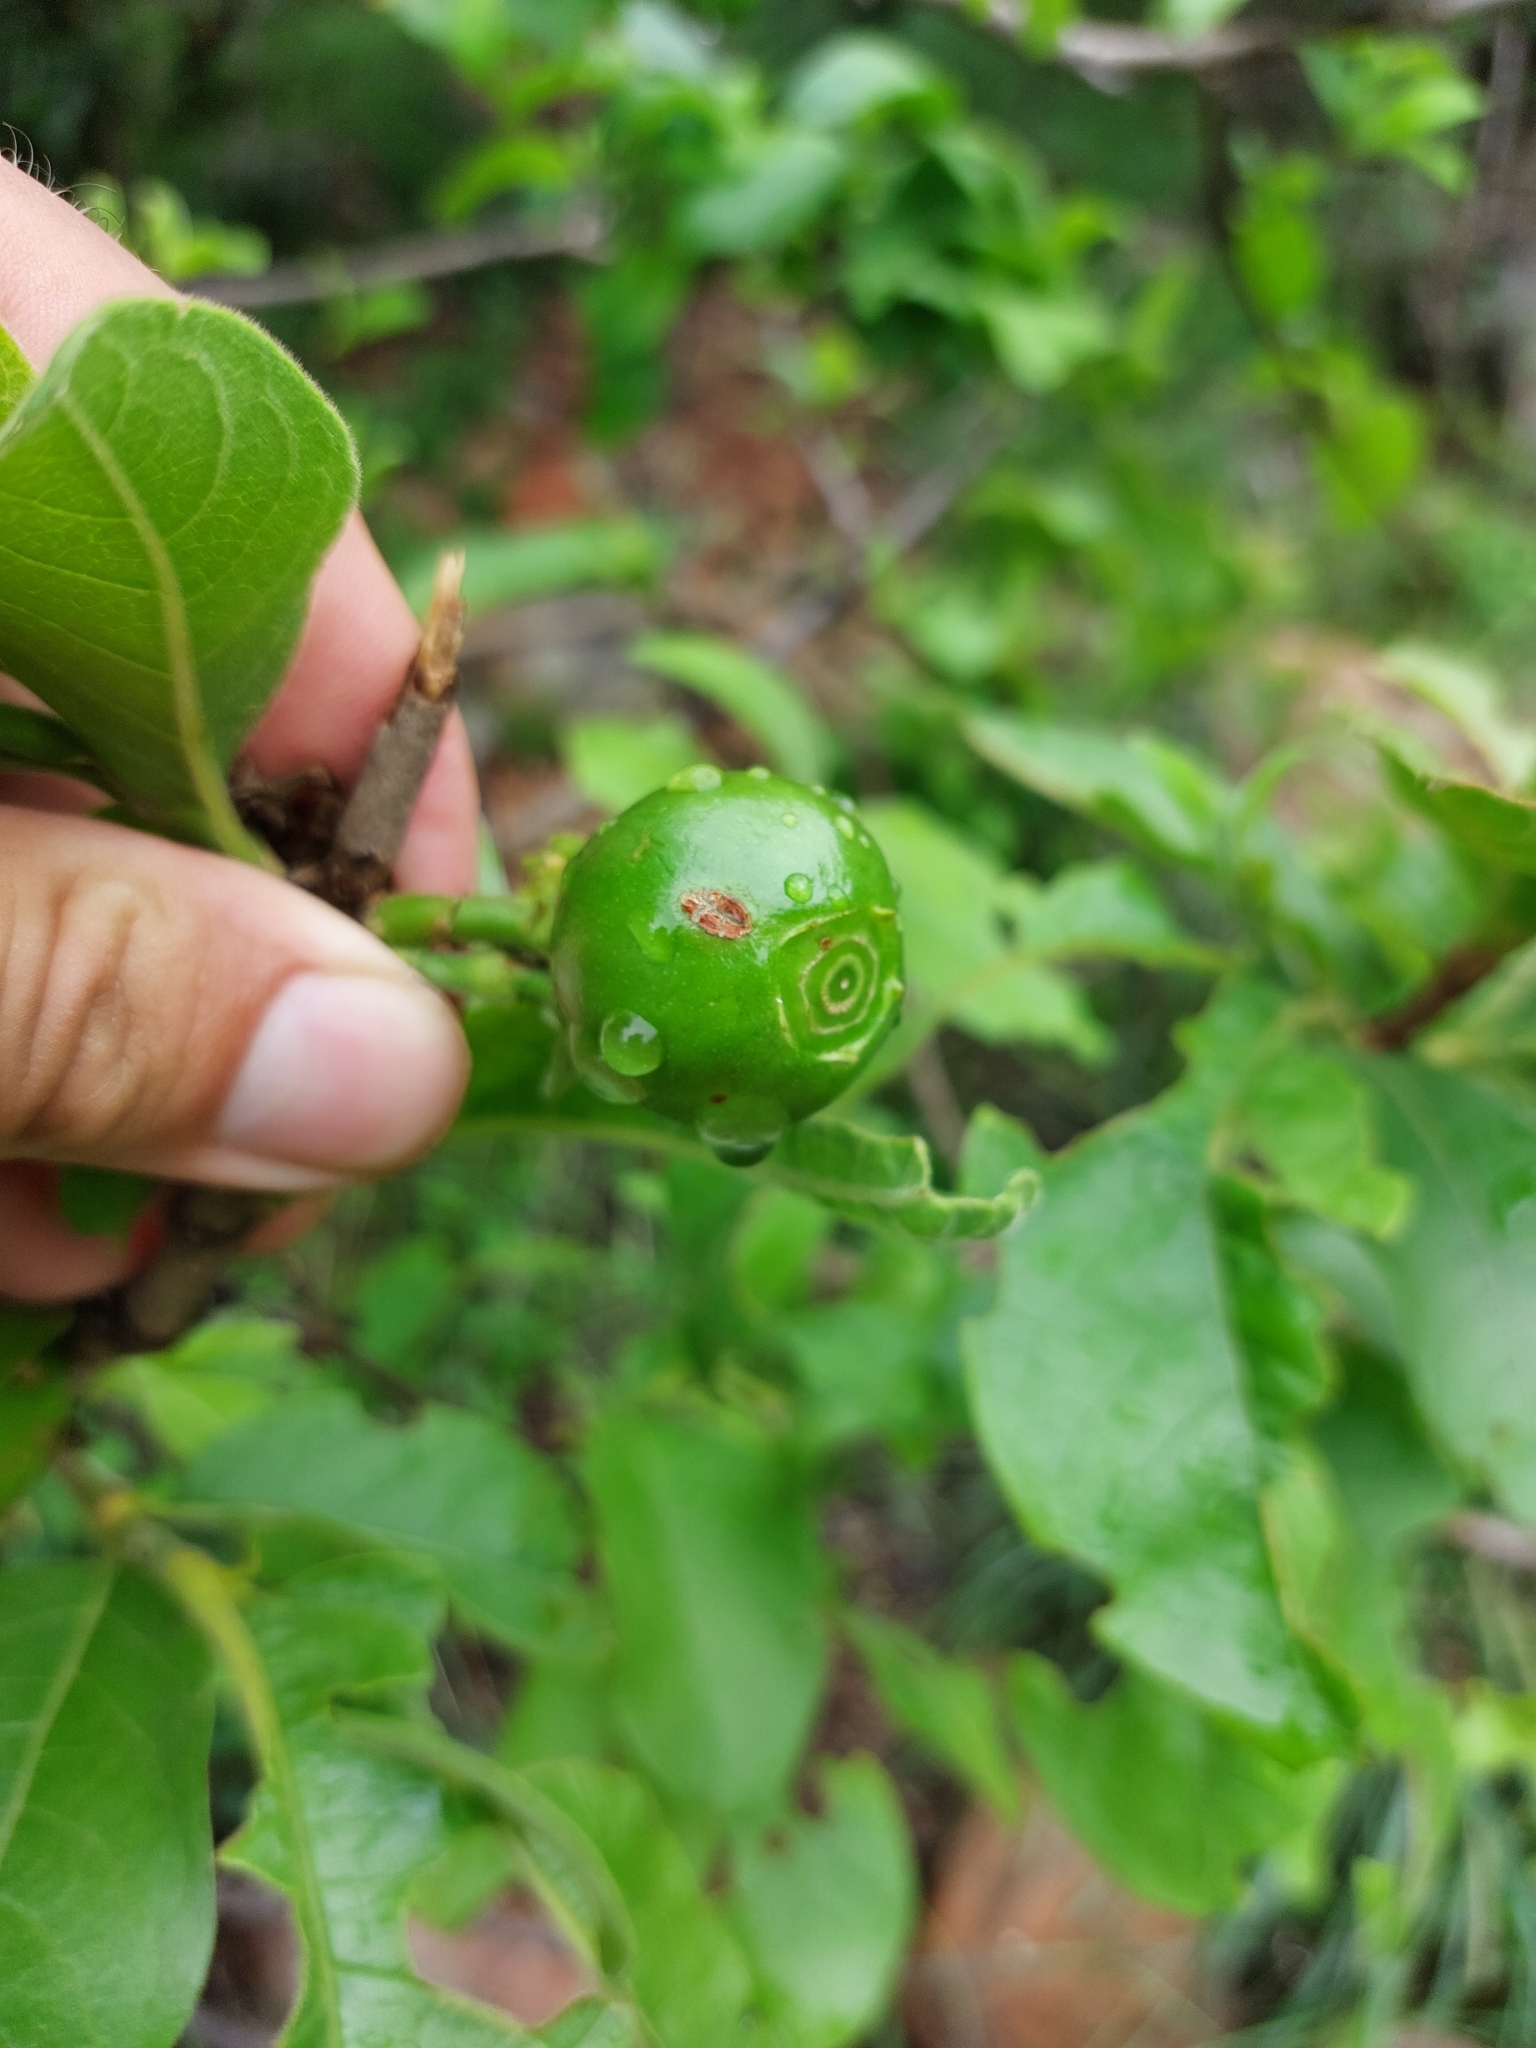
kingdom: Plantae
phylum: Tracheophyta
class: Magnoliopsida
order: Gentianales
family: Rubiaceae
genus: Vangueria
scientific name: Vangueria infausta
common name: Medlar
